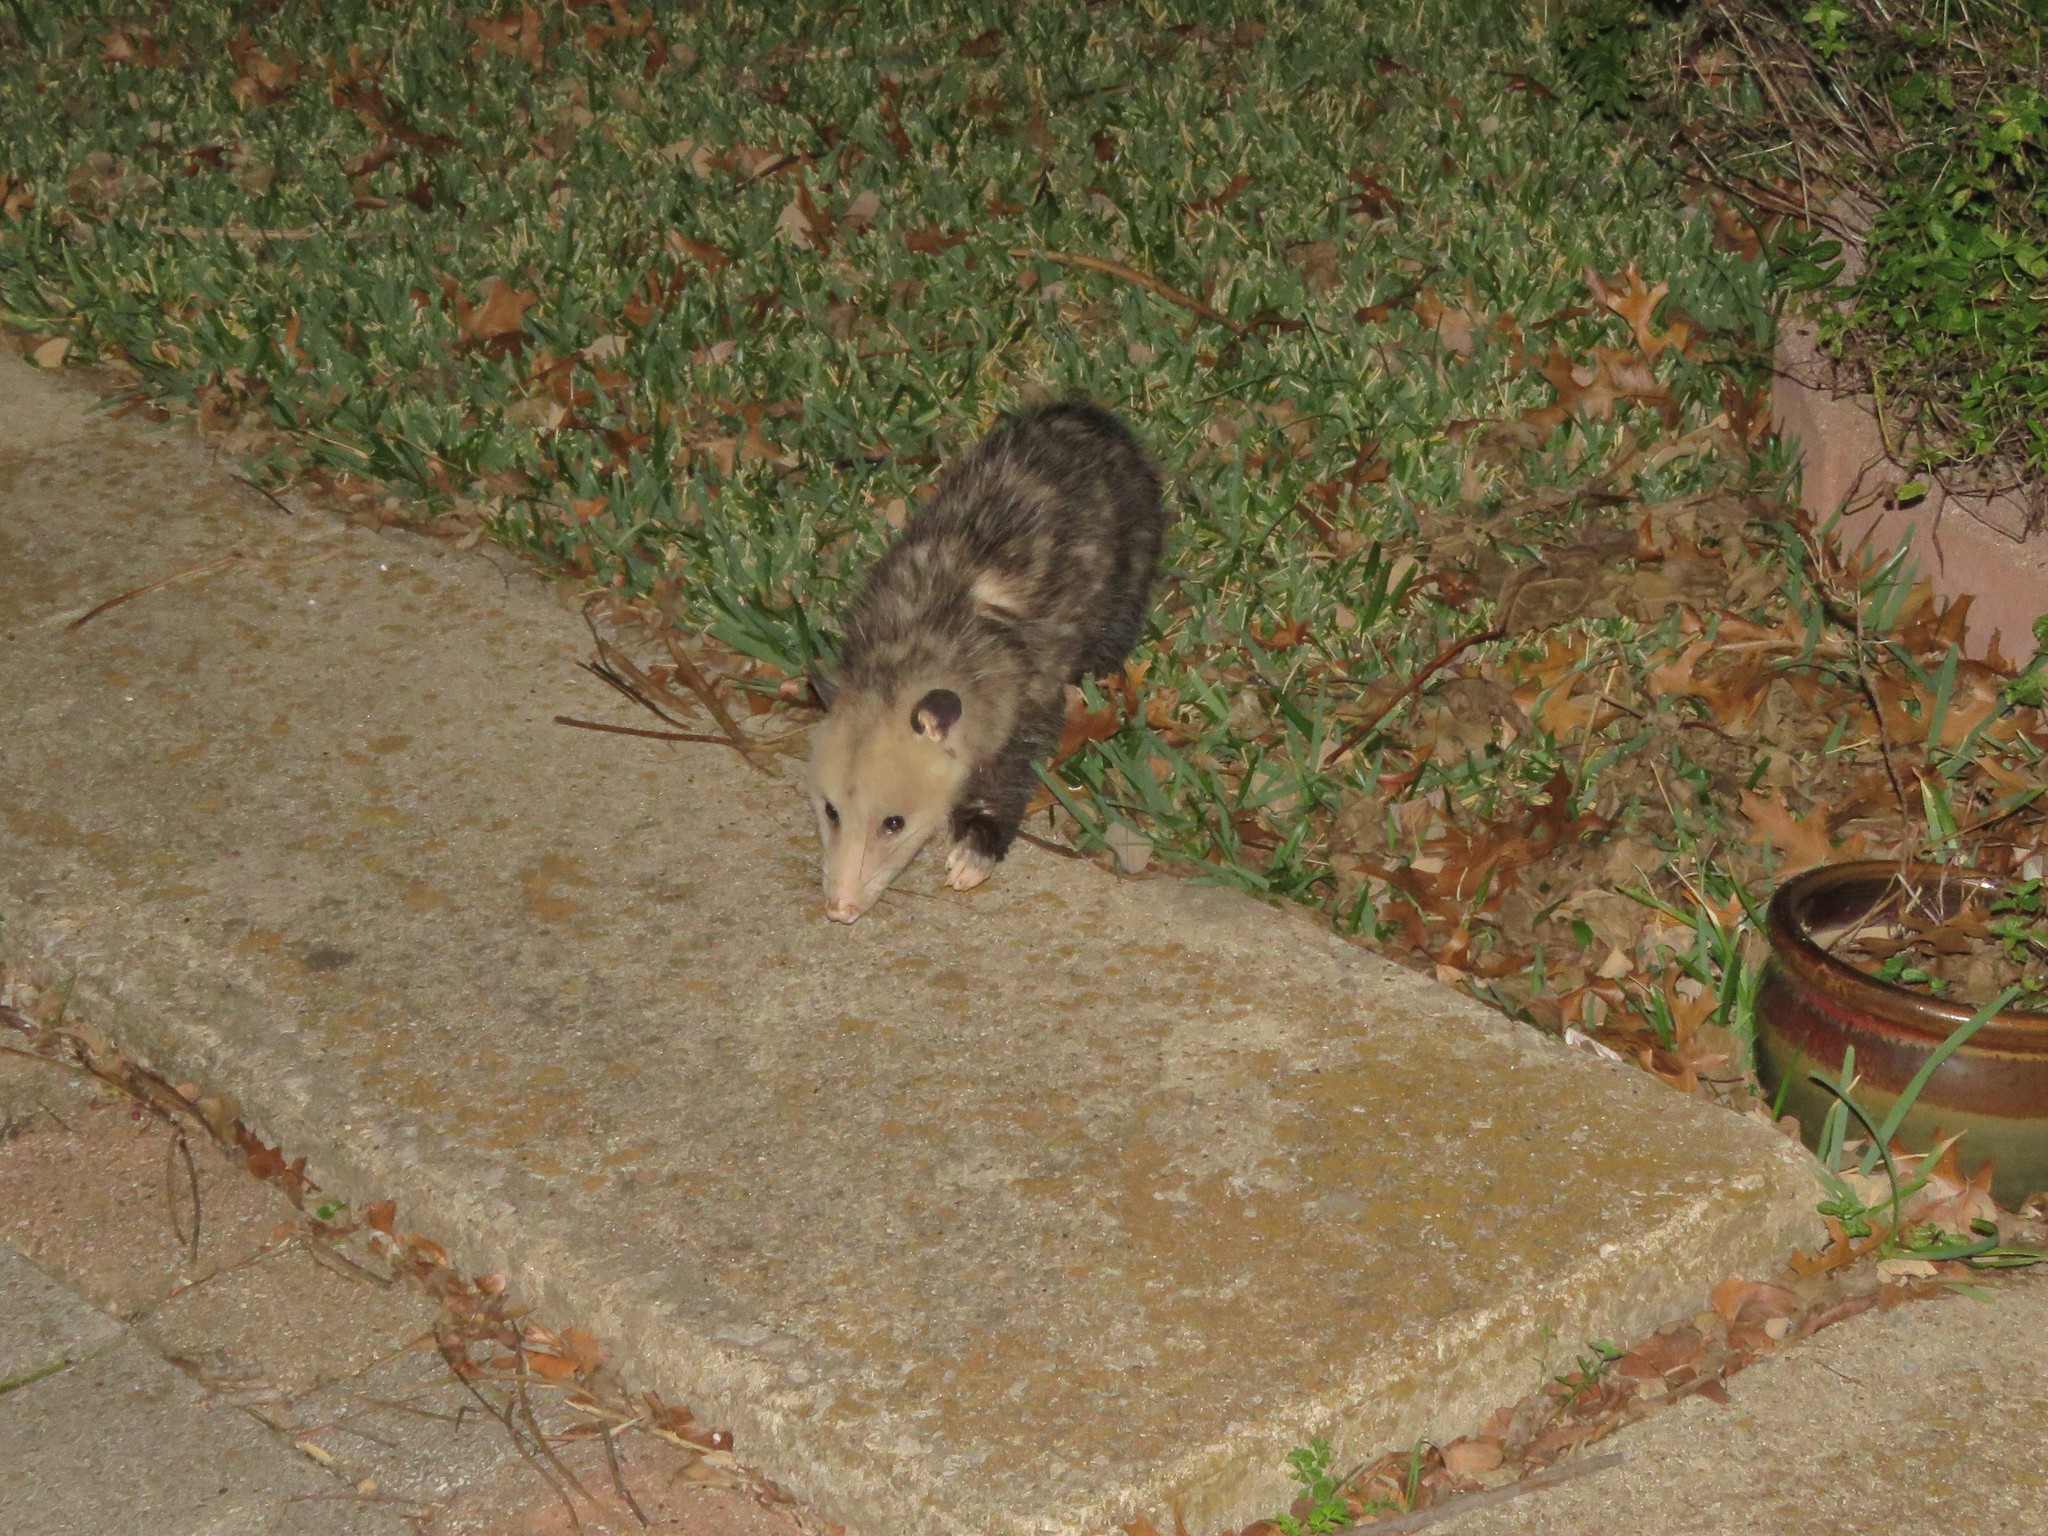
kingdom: Animalia
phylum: Chordata
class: Mammalia
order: Didelphimorphia
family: Didelphidae
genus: Didelphis
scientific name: Didelphis virginiana
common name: Virginia opossum
